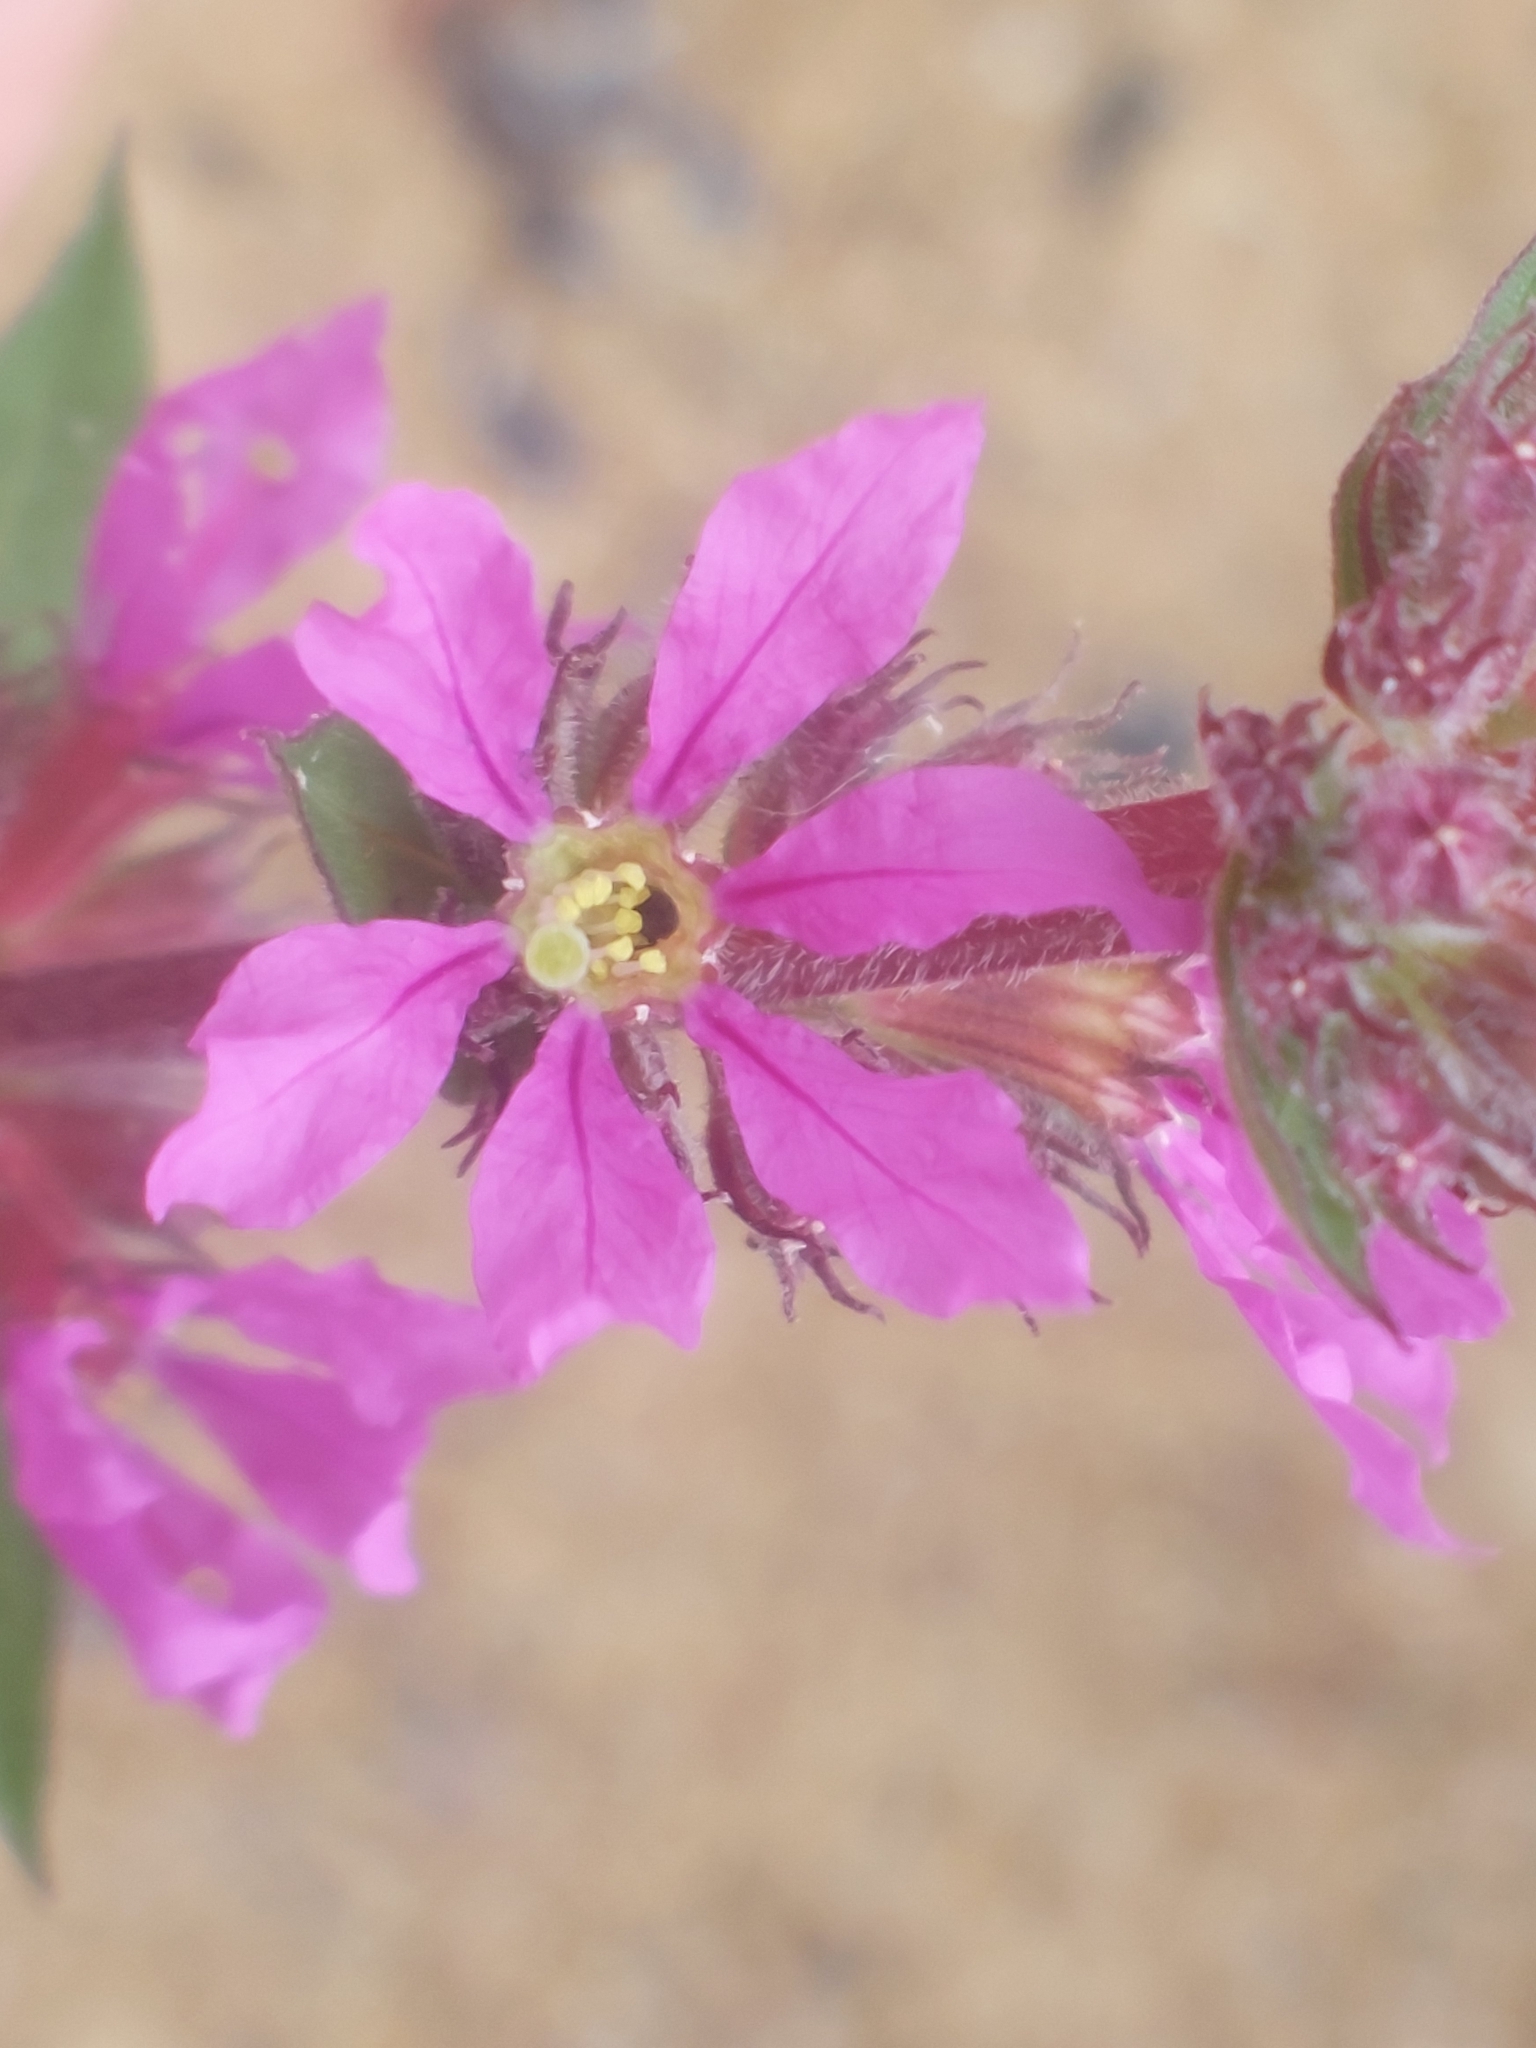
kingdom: Plantae
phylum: Tracheophyta
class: Magnoliopsida
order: Myrtales
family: Lythraceae
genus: Lythrum
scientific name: Lythrum salicaria
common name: Purple loosestrife
